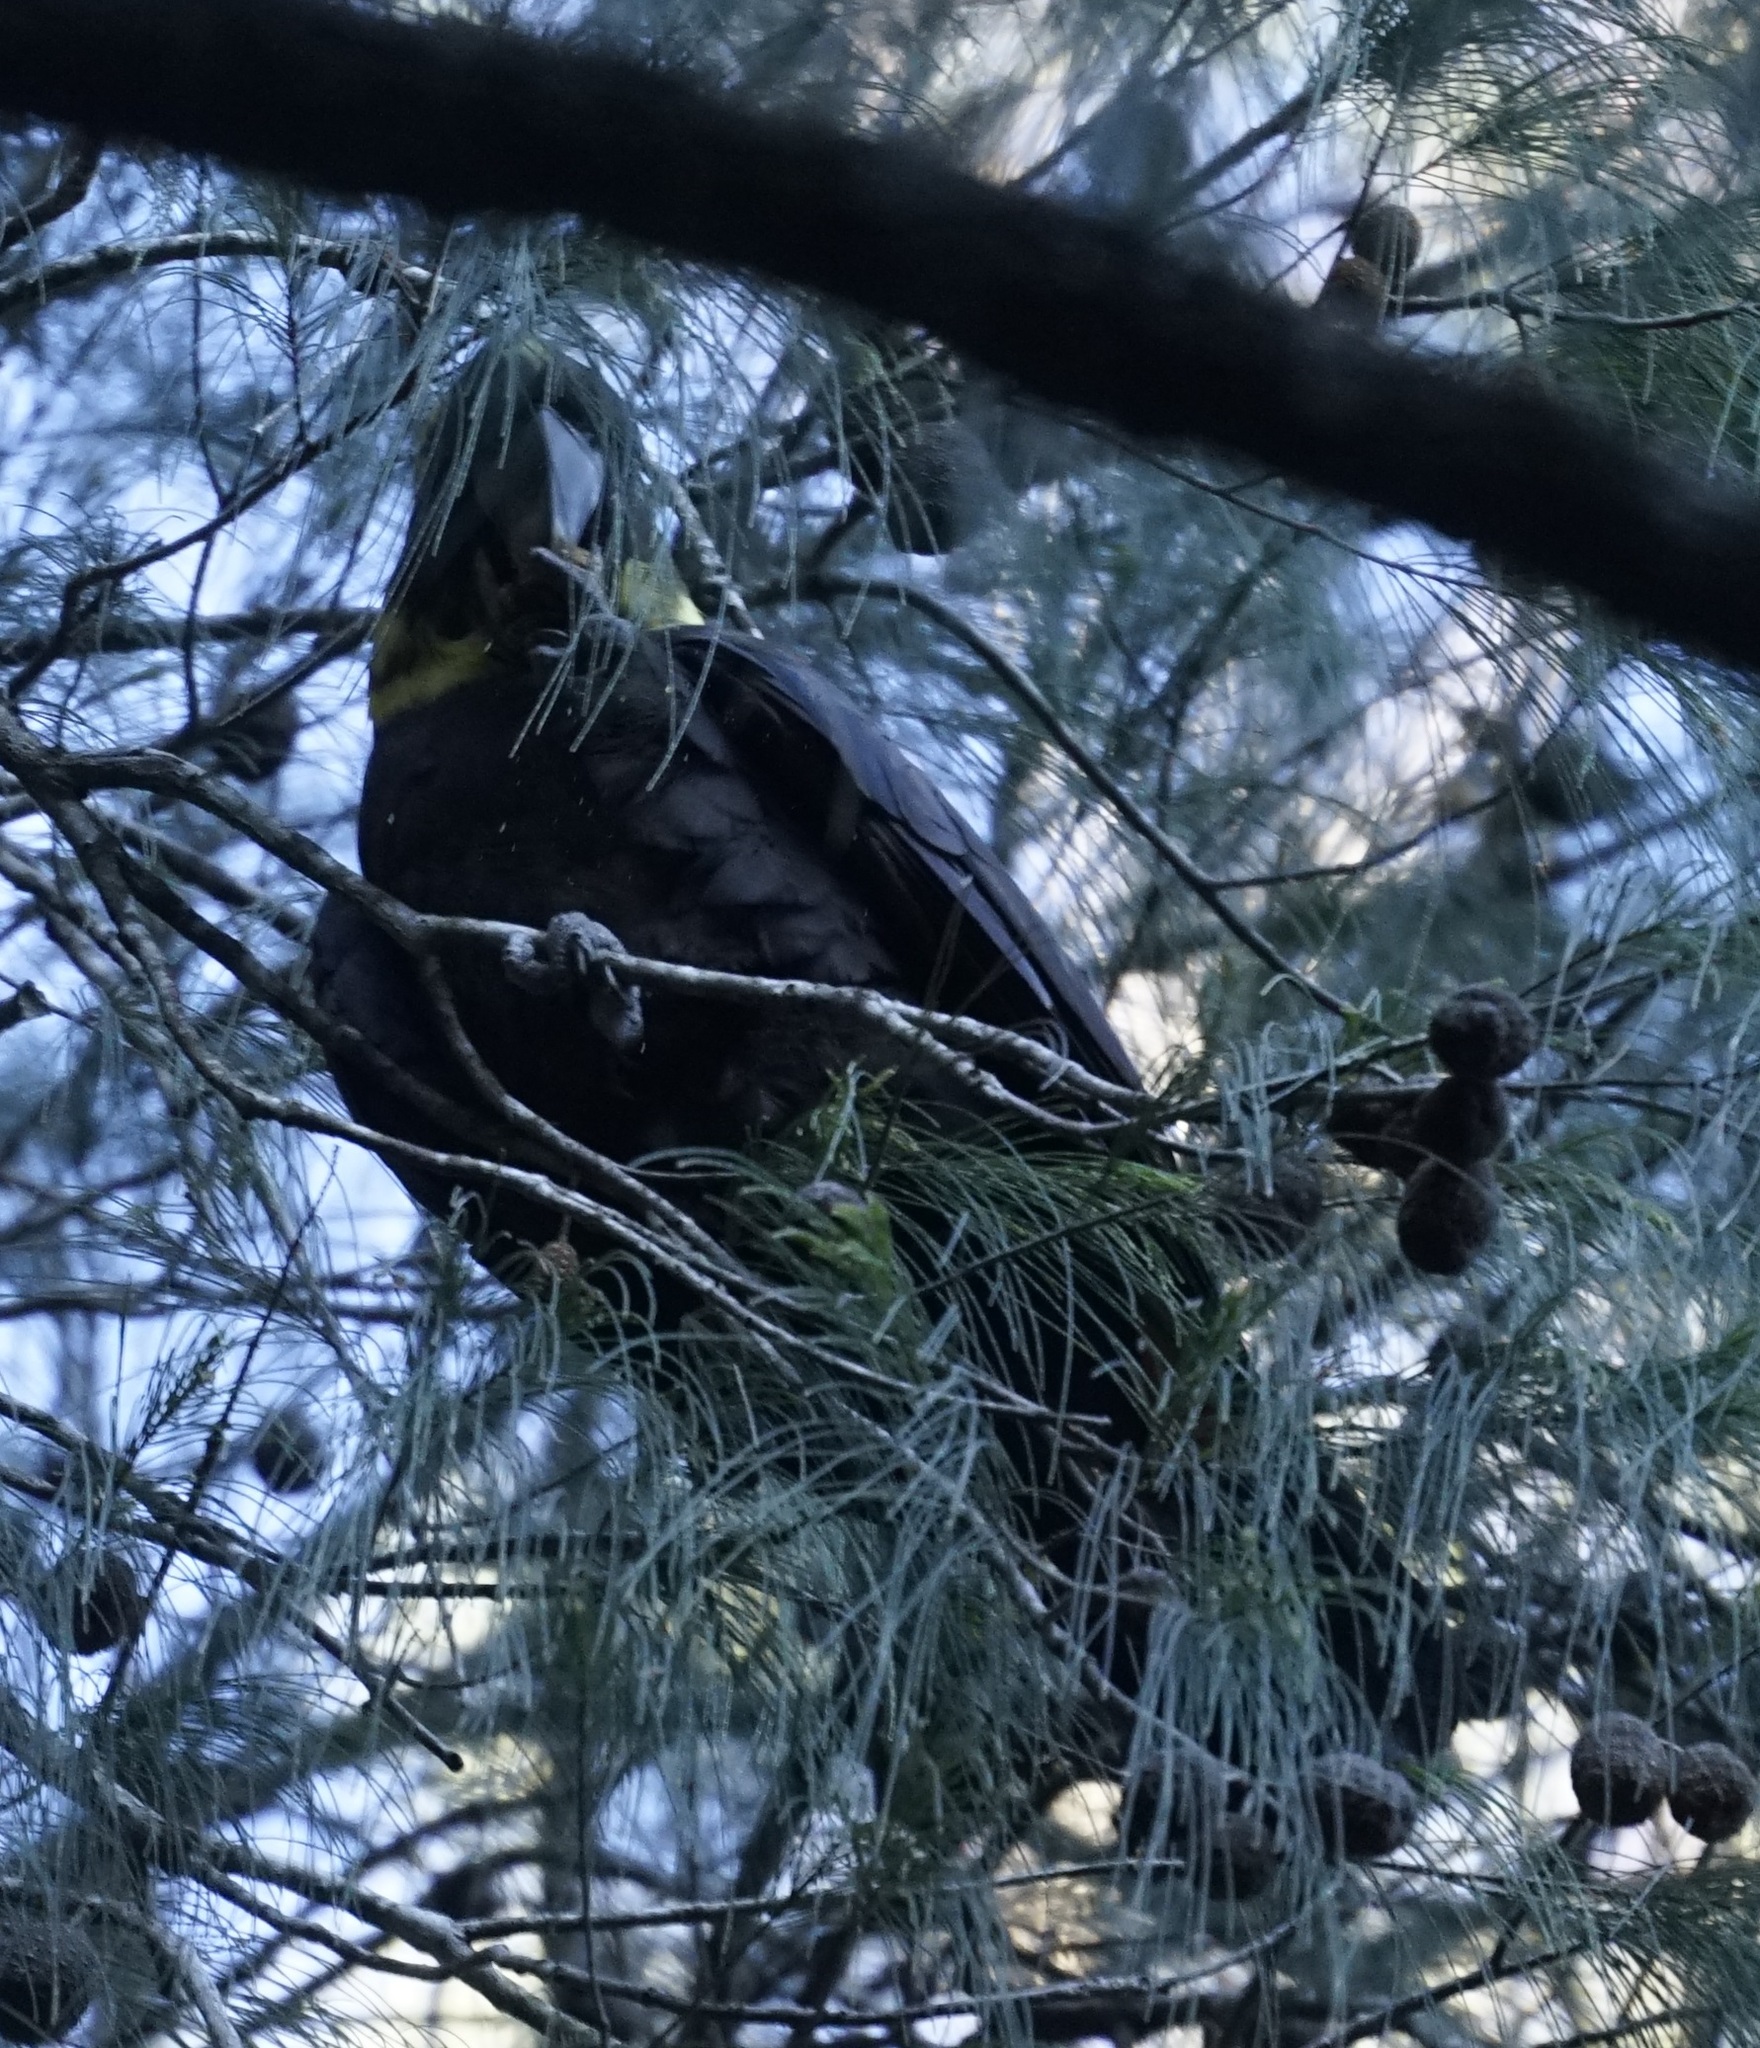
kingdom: Animalia
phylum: Chordata
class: Aves
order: Psittaciformes
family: Psittacidae
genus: Calyptorhynchus
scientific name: Calyptorhynchus lathami
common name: Glossy black cockatoo
